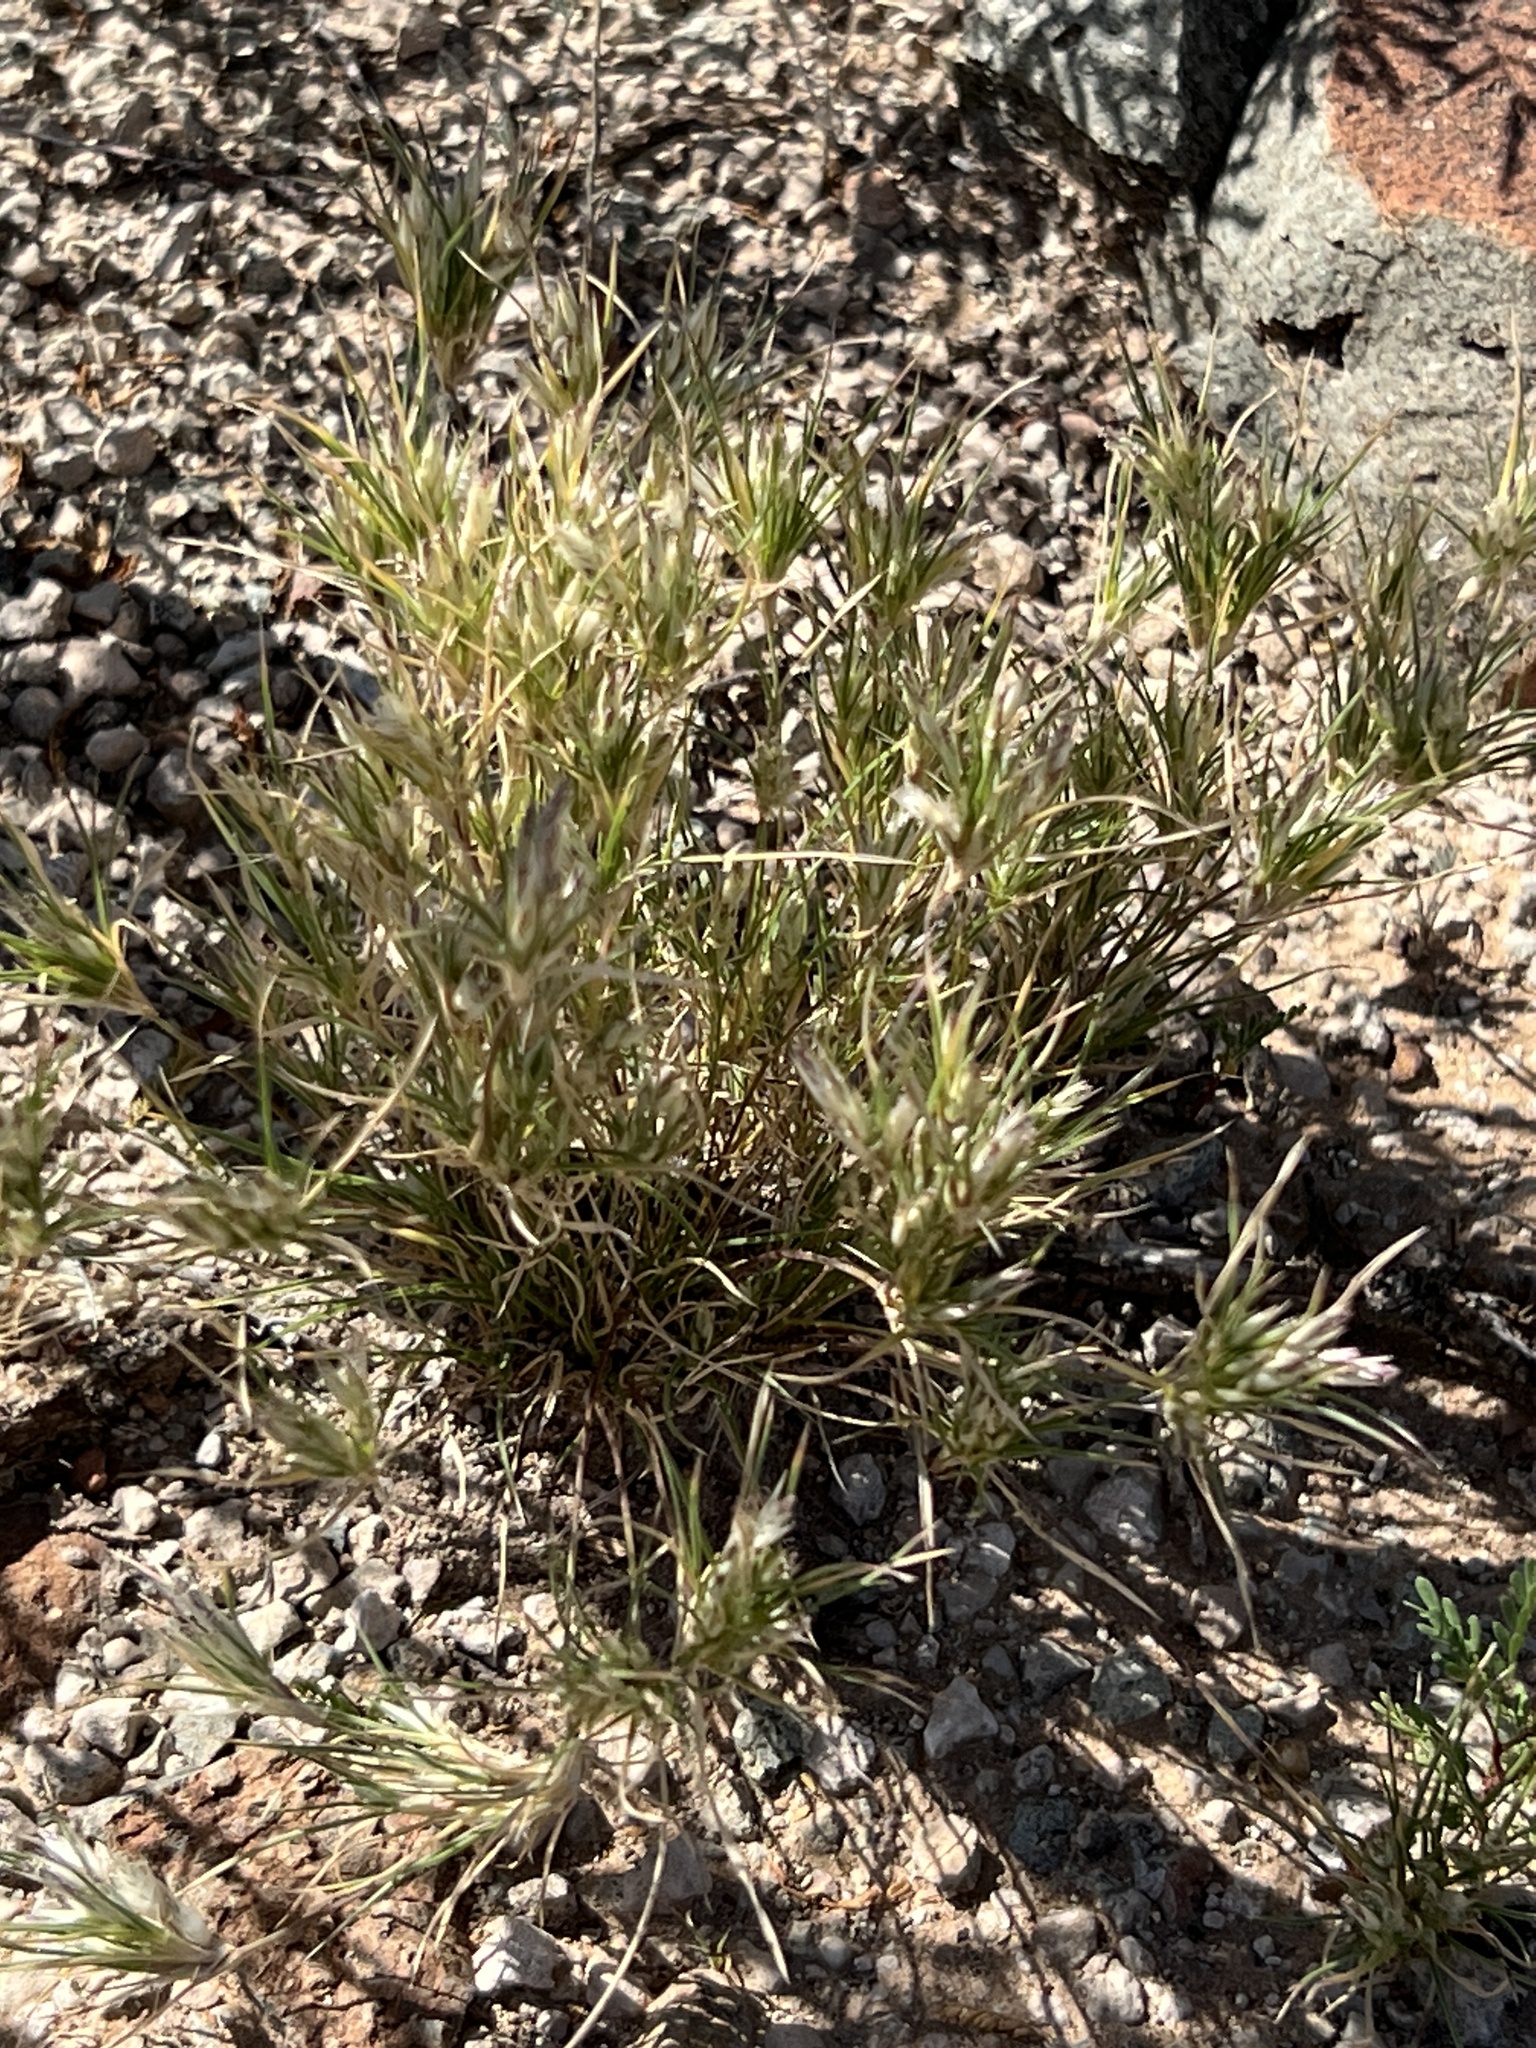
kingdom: Plantae
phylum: Tracheophyta
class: Liliopsida
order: Poales
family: Poaceae
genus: Dasyochloa
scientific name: Dasyochloa pulchella
